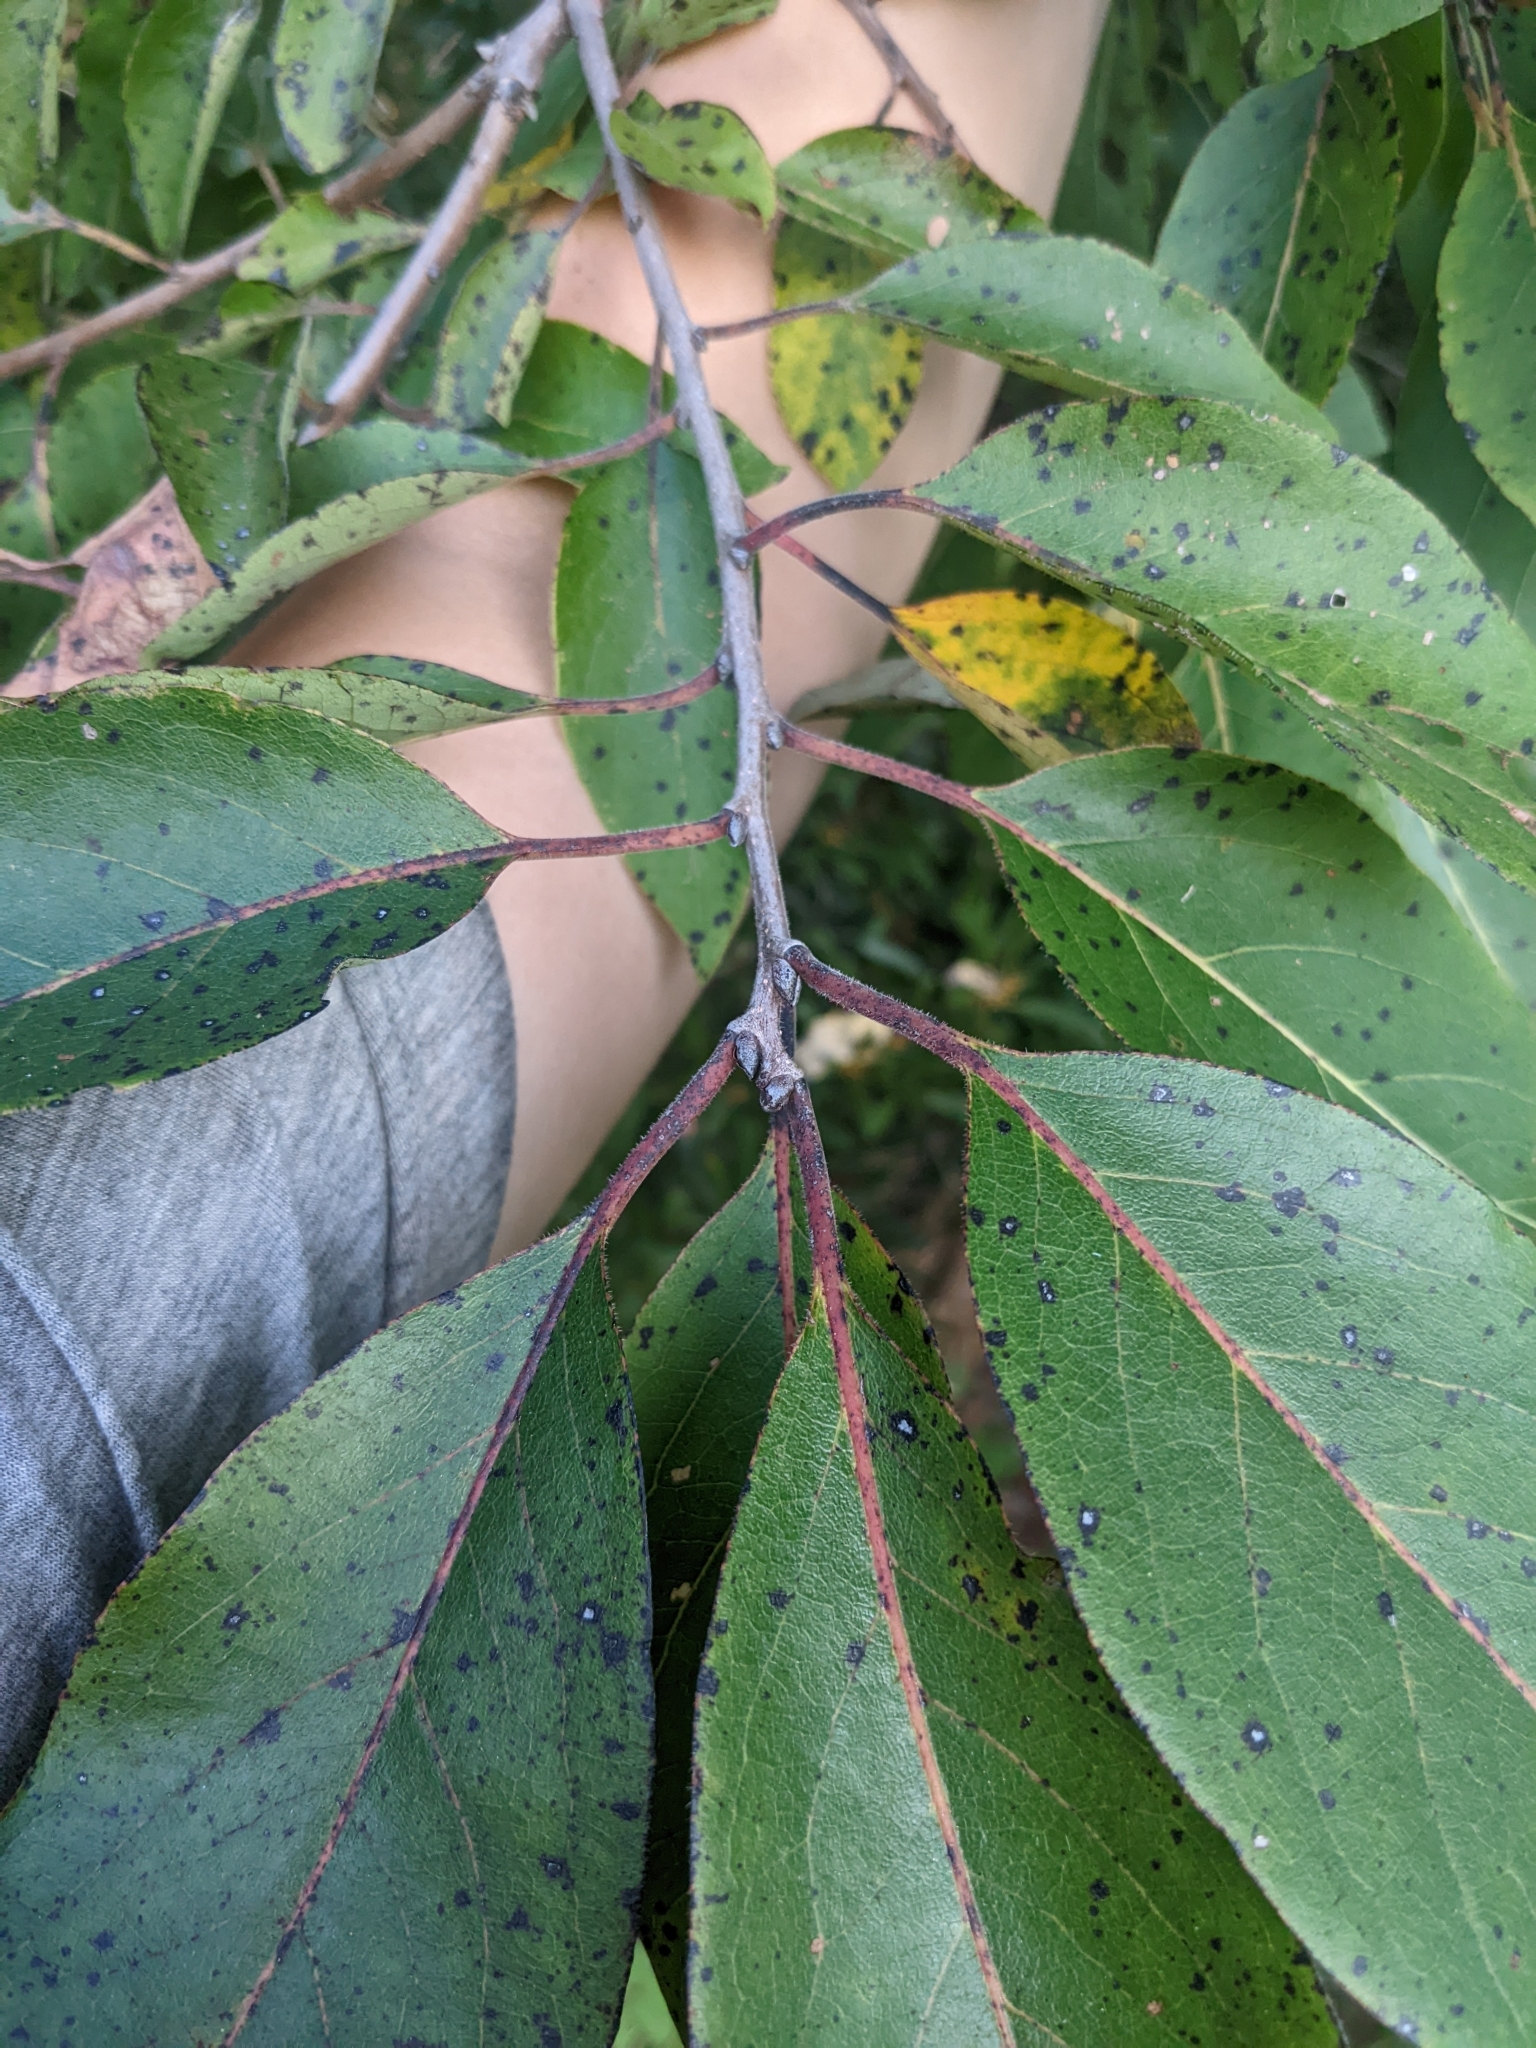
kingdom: Plantae
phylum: Tracheophyta
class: Magnoliopsida
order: Ericales
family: Ebenaceae
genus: Diospyros
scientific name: Diospyros virginiana
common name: Persimmon
